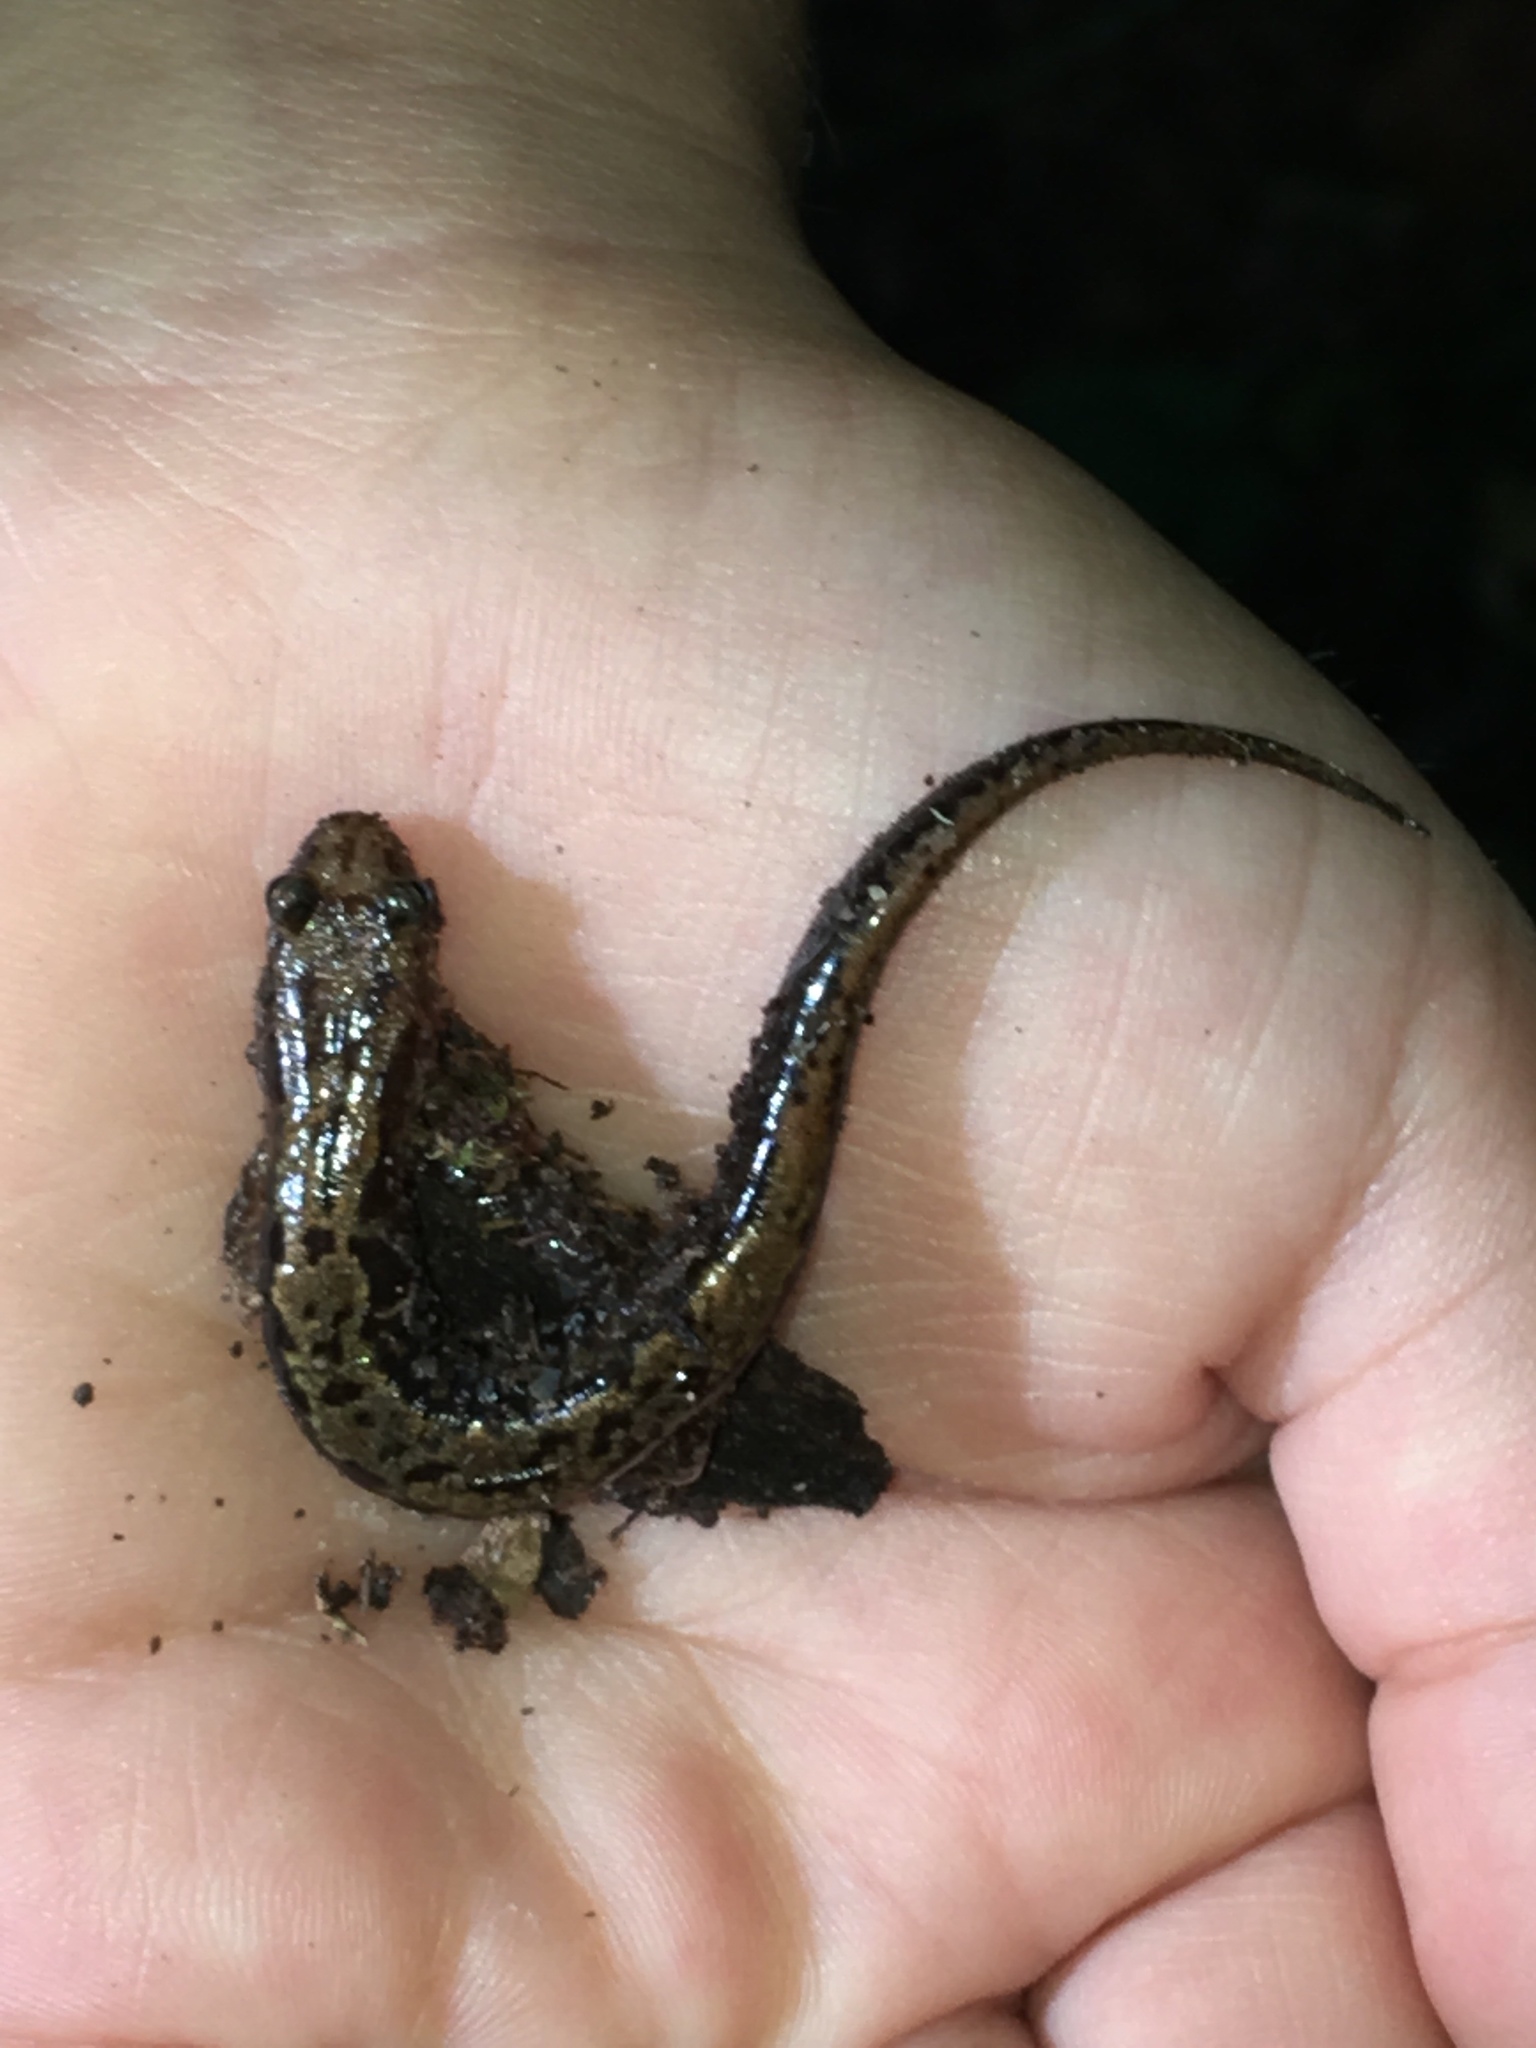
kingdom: Animalia
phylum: Chordata
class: Amphibia
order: Caudata
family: Plethodontidae
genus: Desmognathus
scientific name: Desmognathus orestes
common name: Blue ridge dusky salamander
